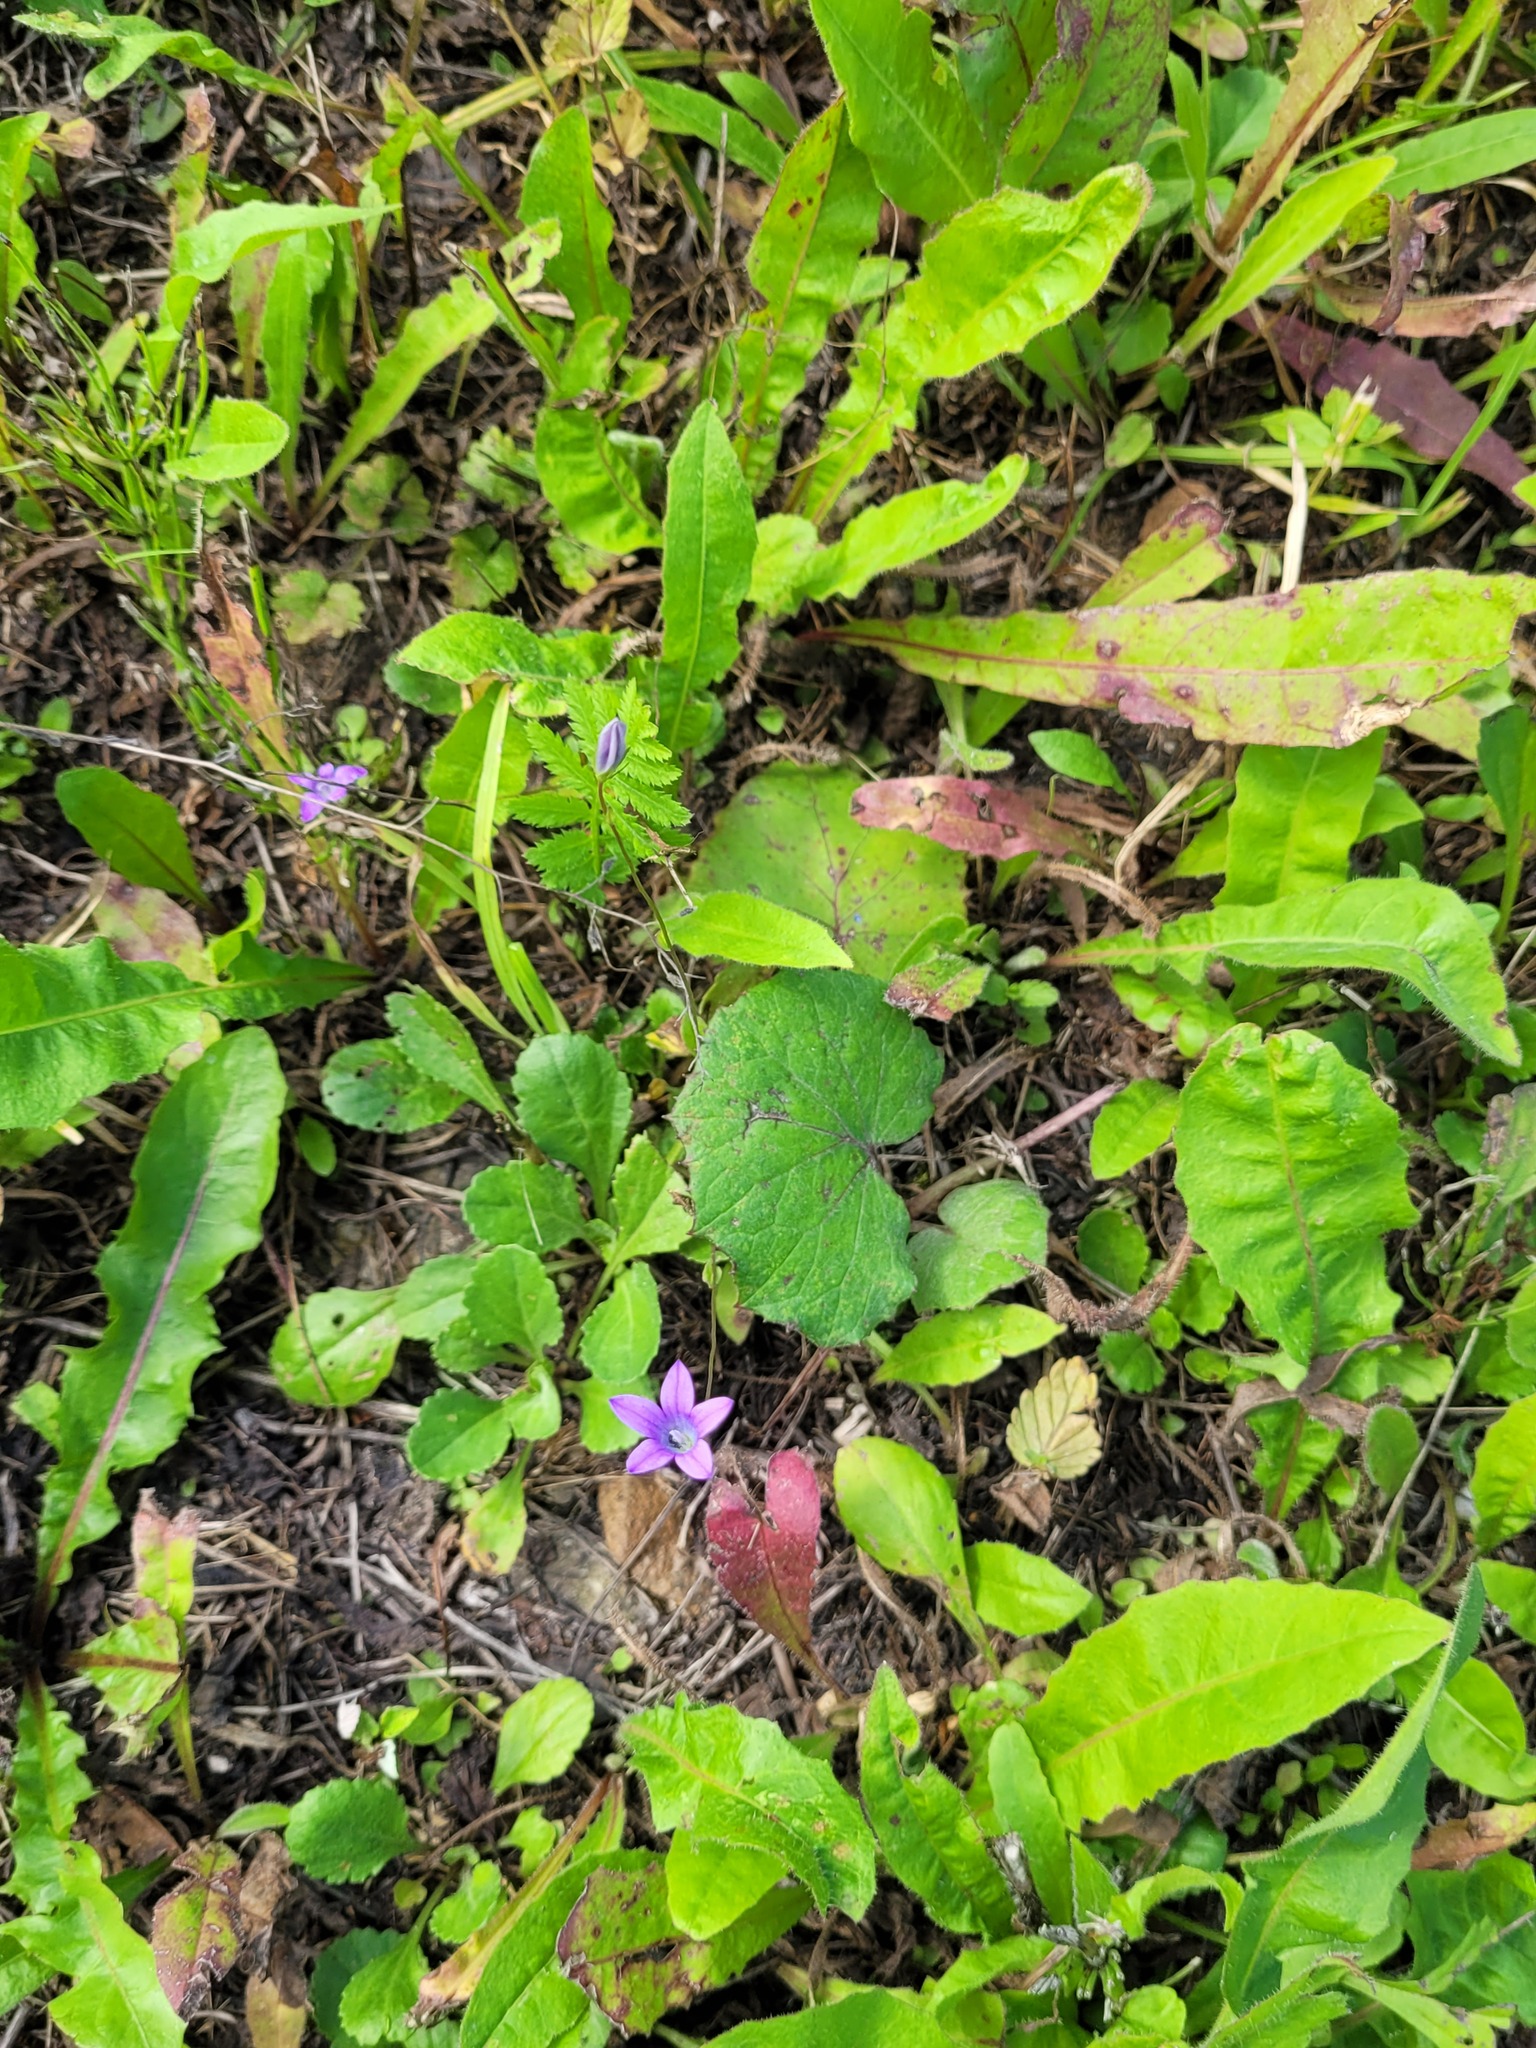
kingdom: Plantae
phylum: Tracheophyta
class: Magnoliopsida
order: Asterales
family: Campanulaceae
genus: Campanula
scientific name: Campanula patula
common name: Spreading bellflower
